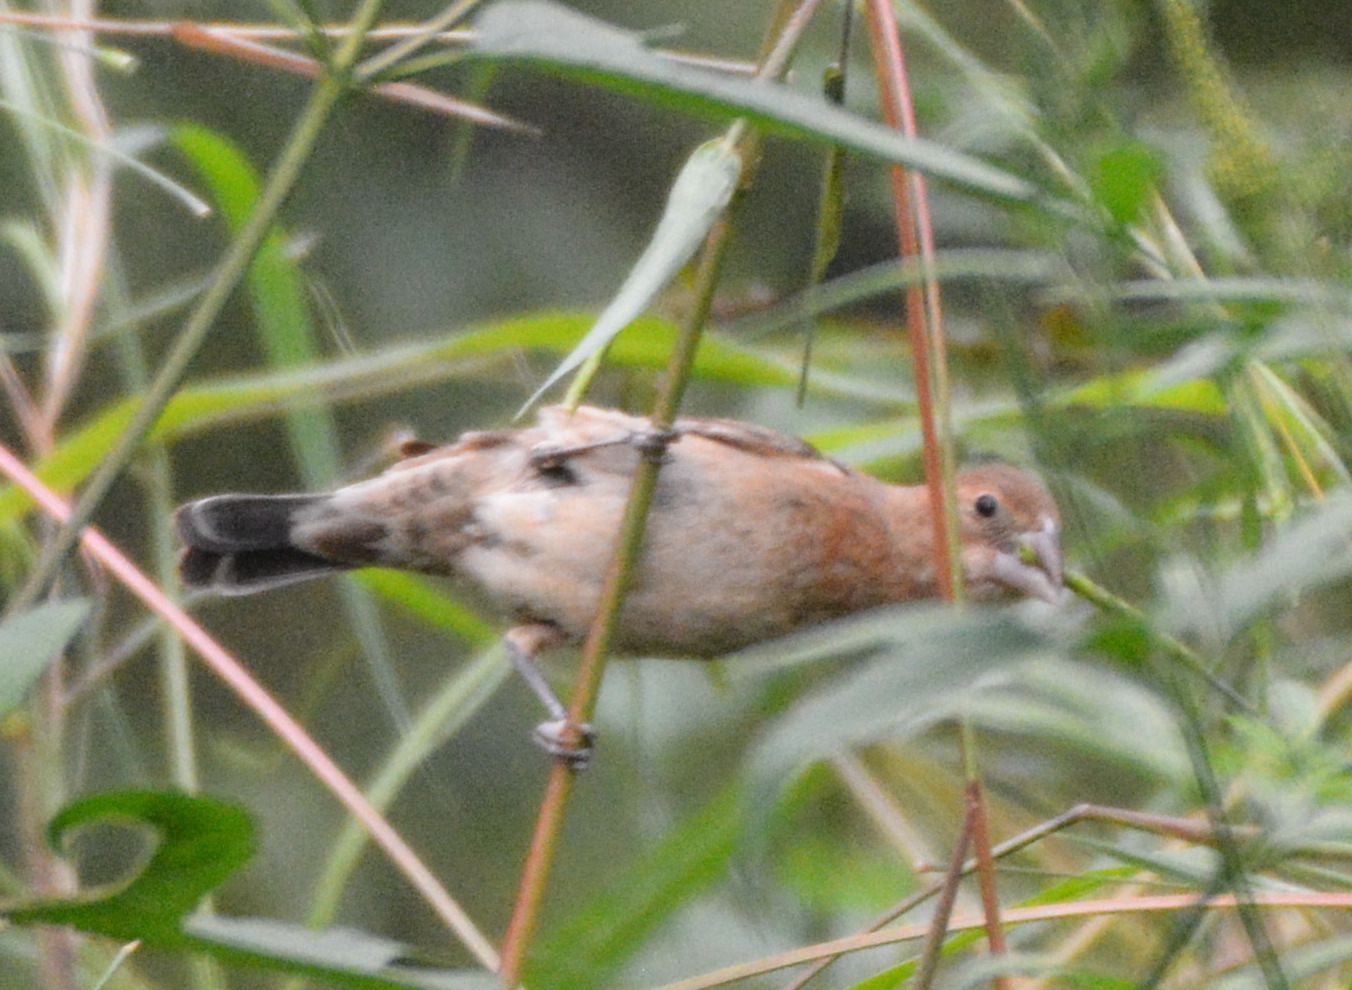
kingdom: Animalia
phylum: Chordata
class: Aves
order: Passeriformes
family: Cardinalidae
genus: Passerina
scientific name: Passerina caerulea
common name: Blue grosbeak
